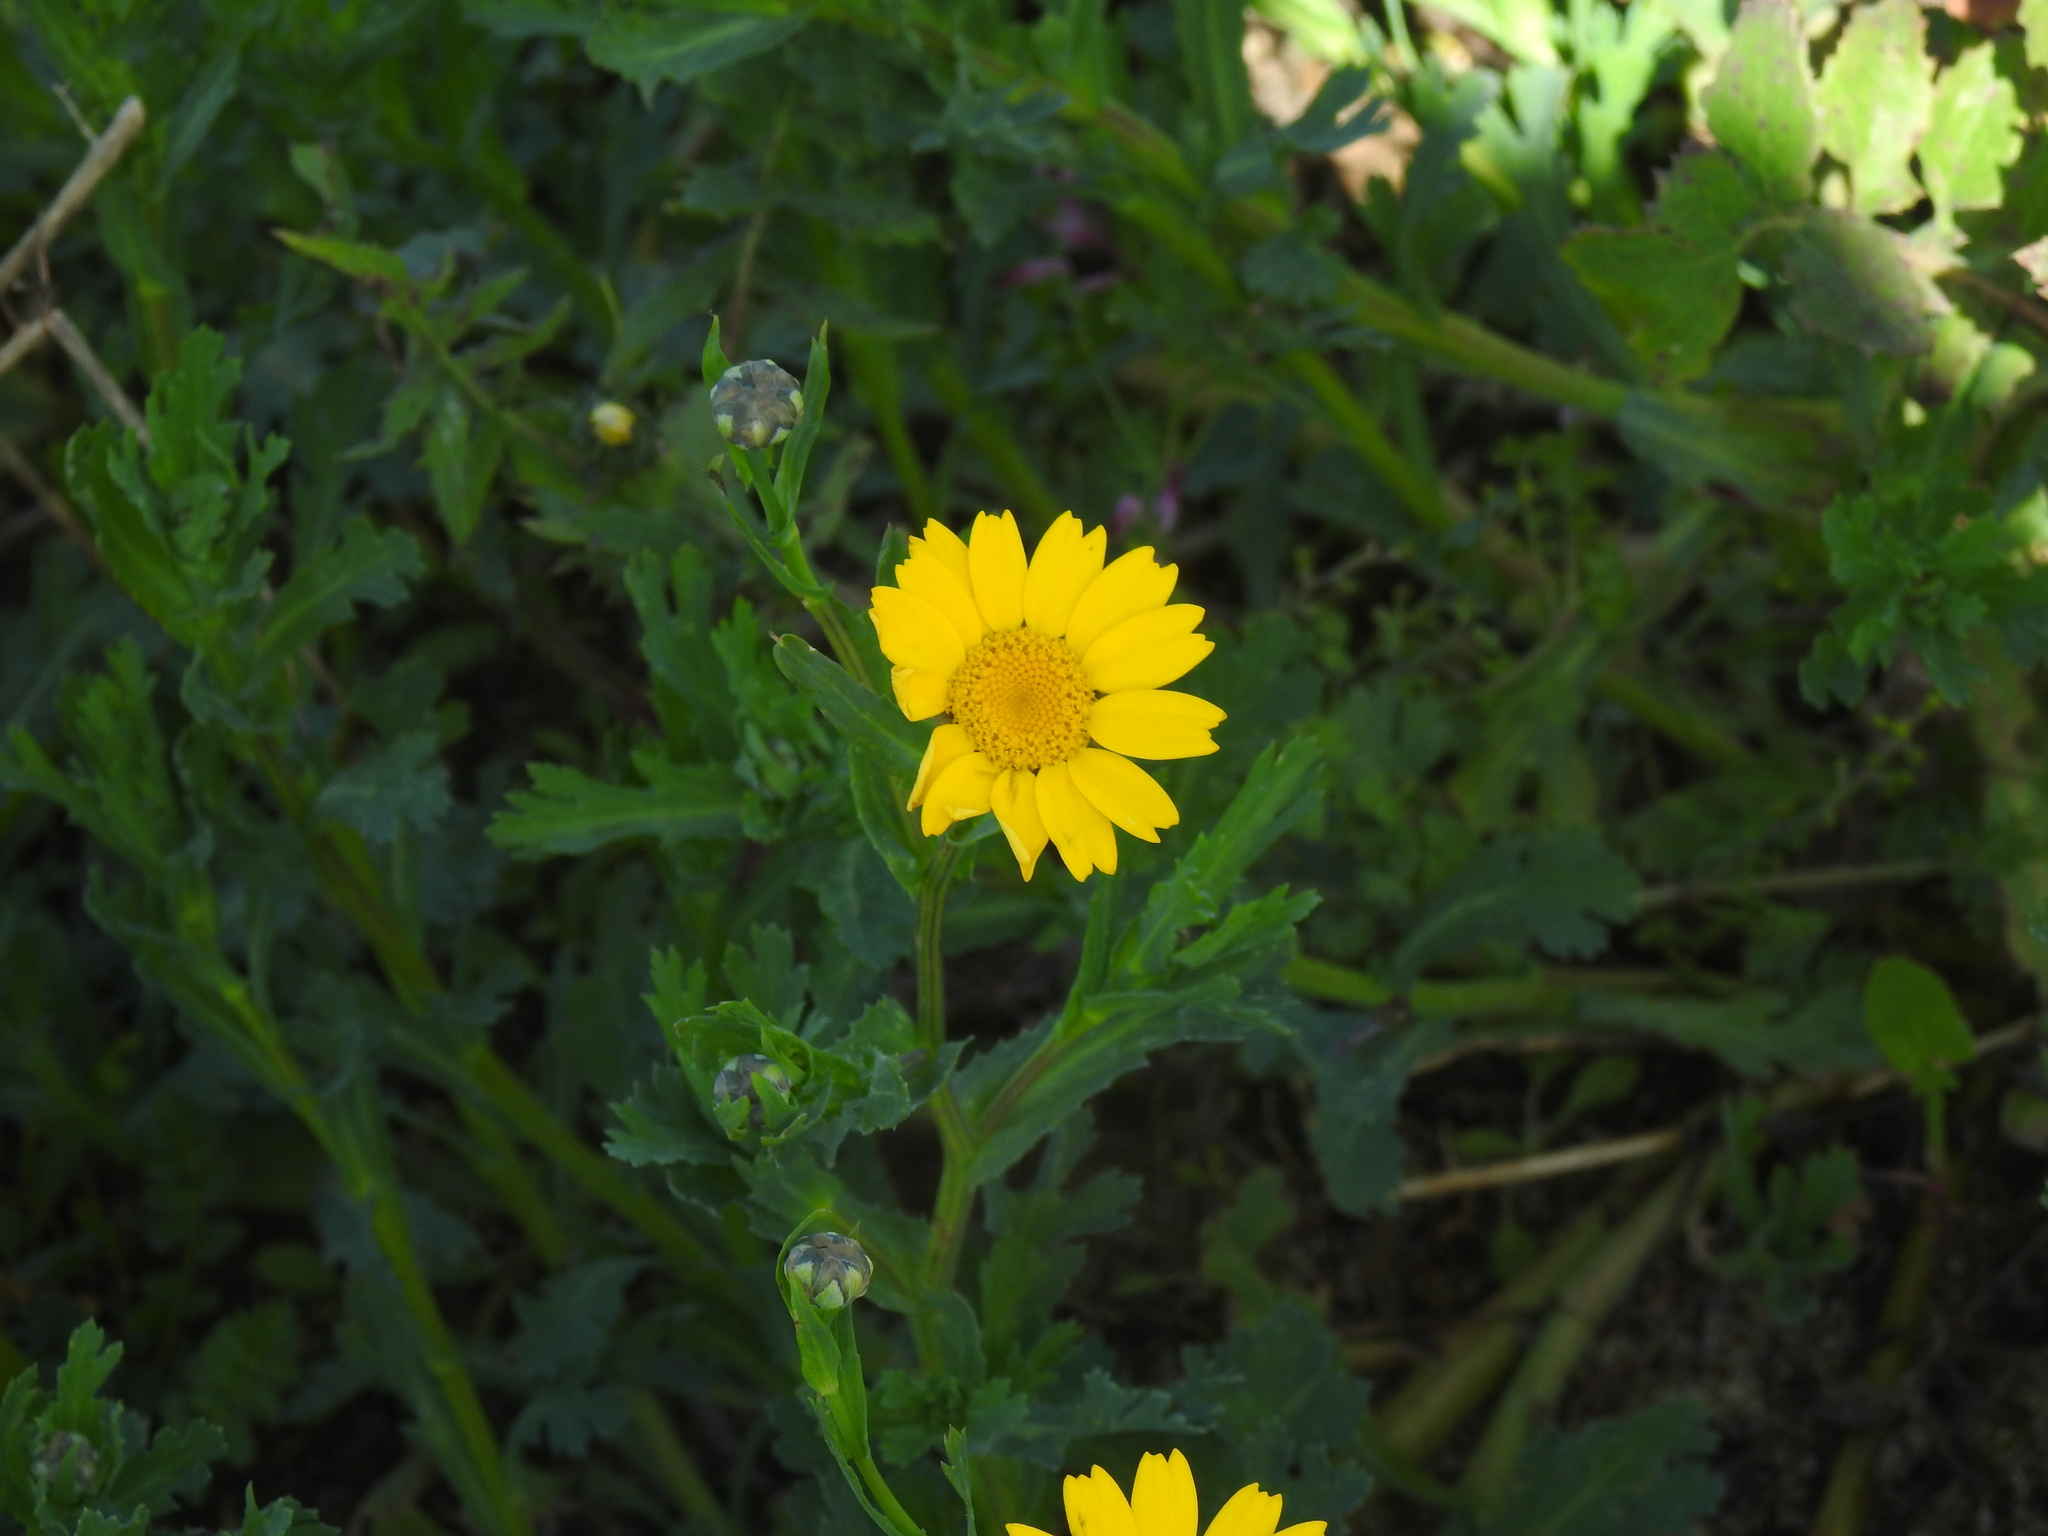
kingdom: Plantae
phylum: Tracheophyta
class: Magnoliopsida
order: Asterales
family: Asteraceae
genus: Glebionis
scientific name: Glebionis segetum
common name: Corndaisy
